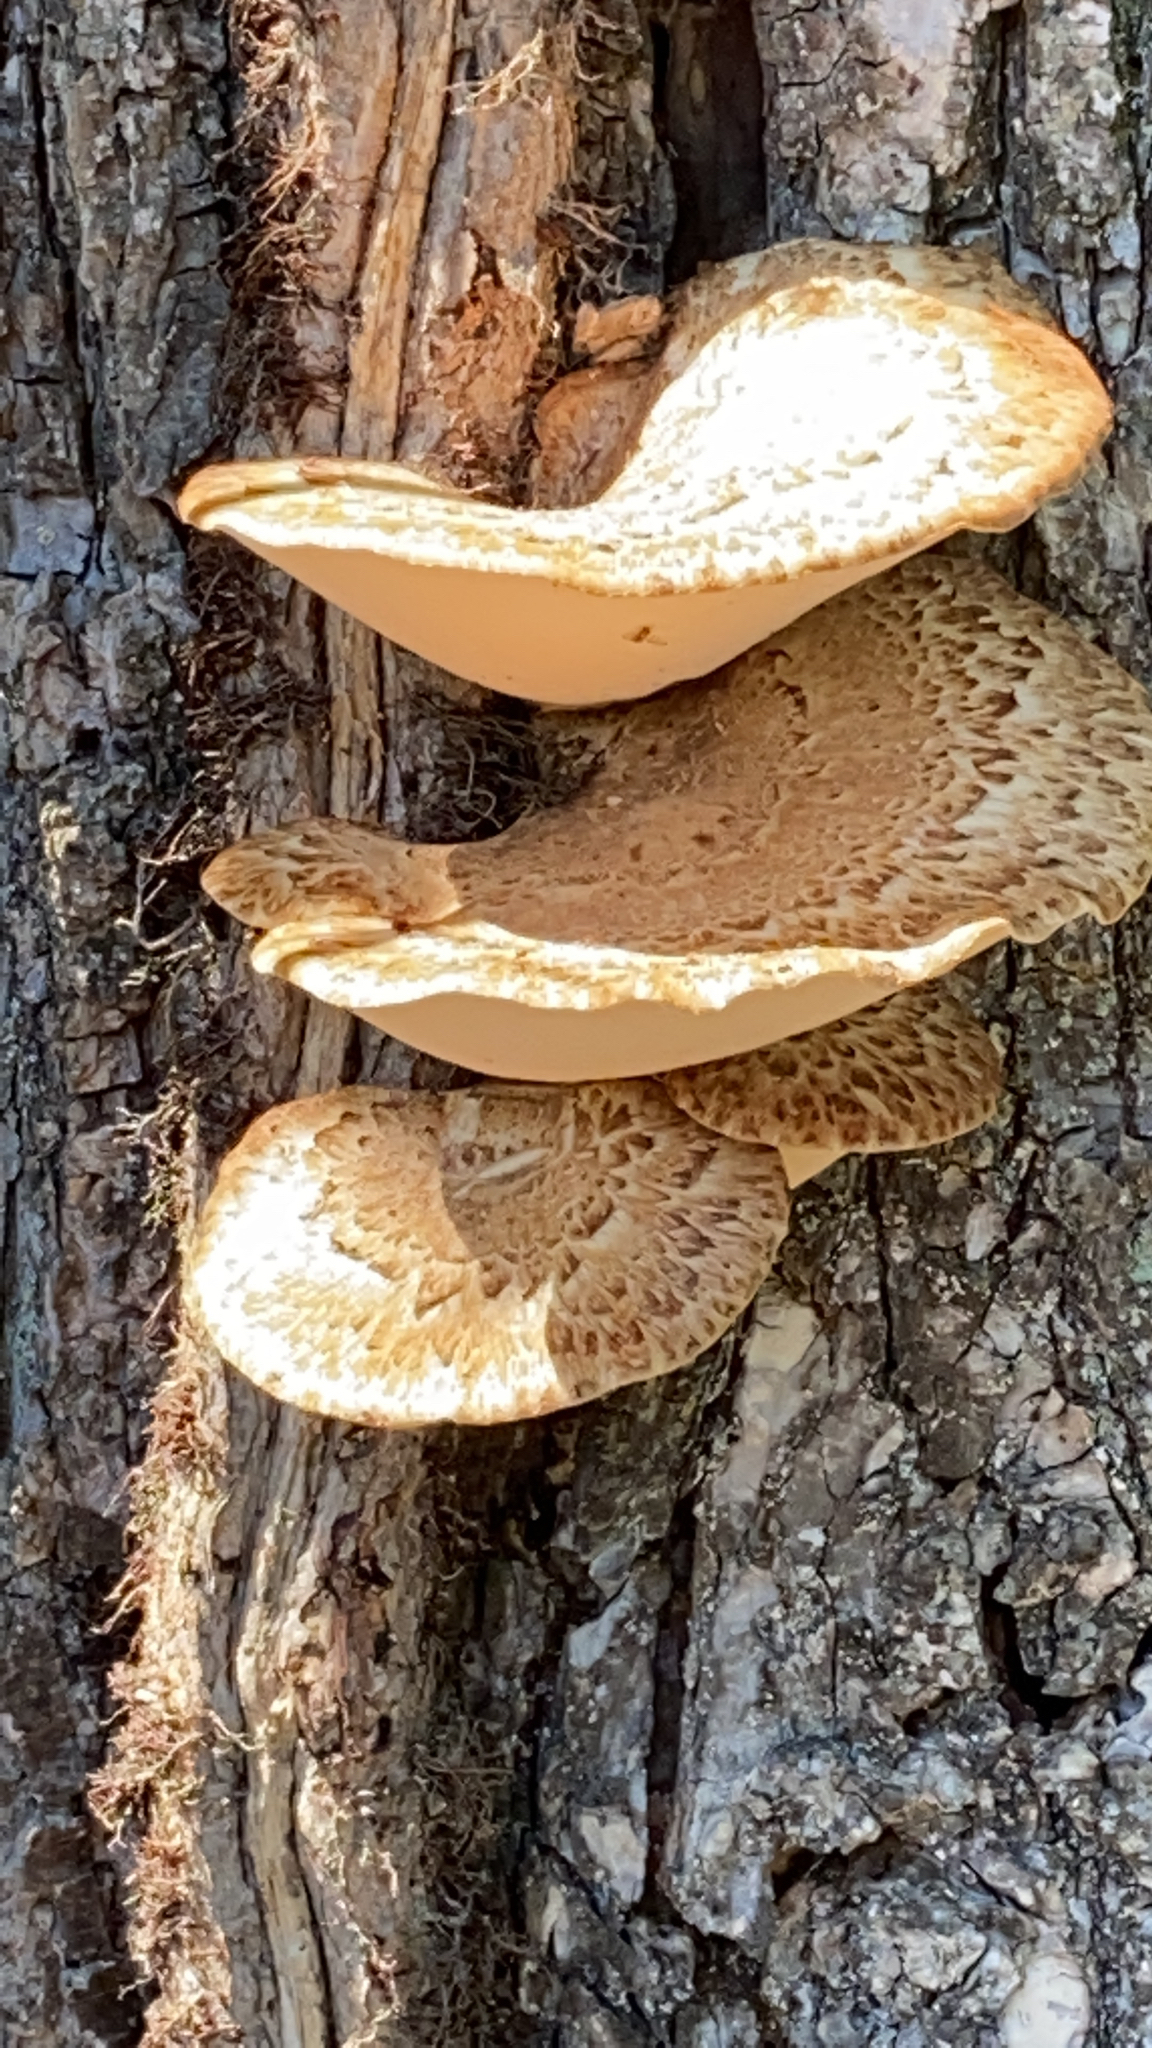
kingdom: Fungi
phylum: Basidiomycota
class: Agaricomycetes
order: Polyporales
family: Polyporaceae
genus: Cerioporus
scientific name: Cerioporus squamosus
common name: Dryad's saddle
